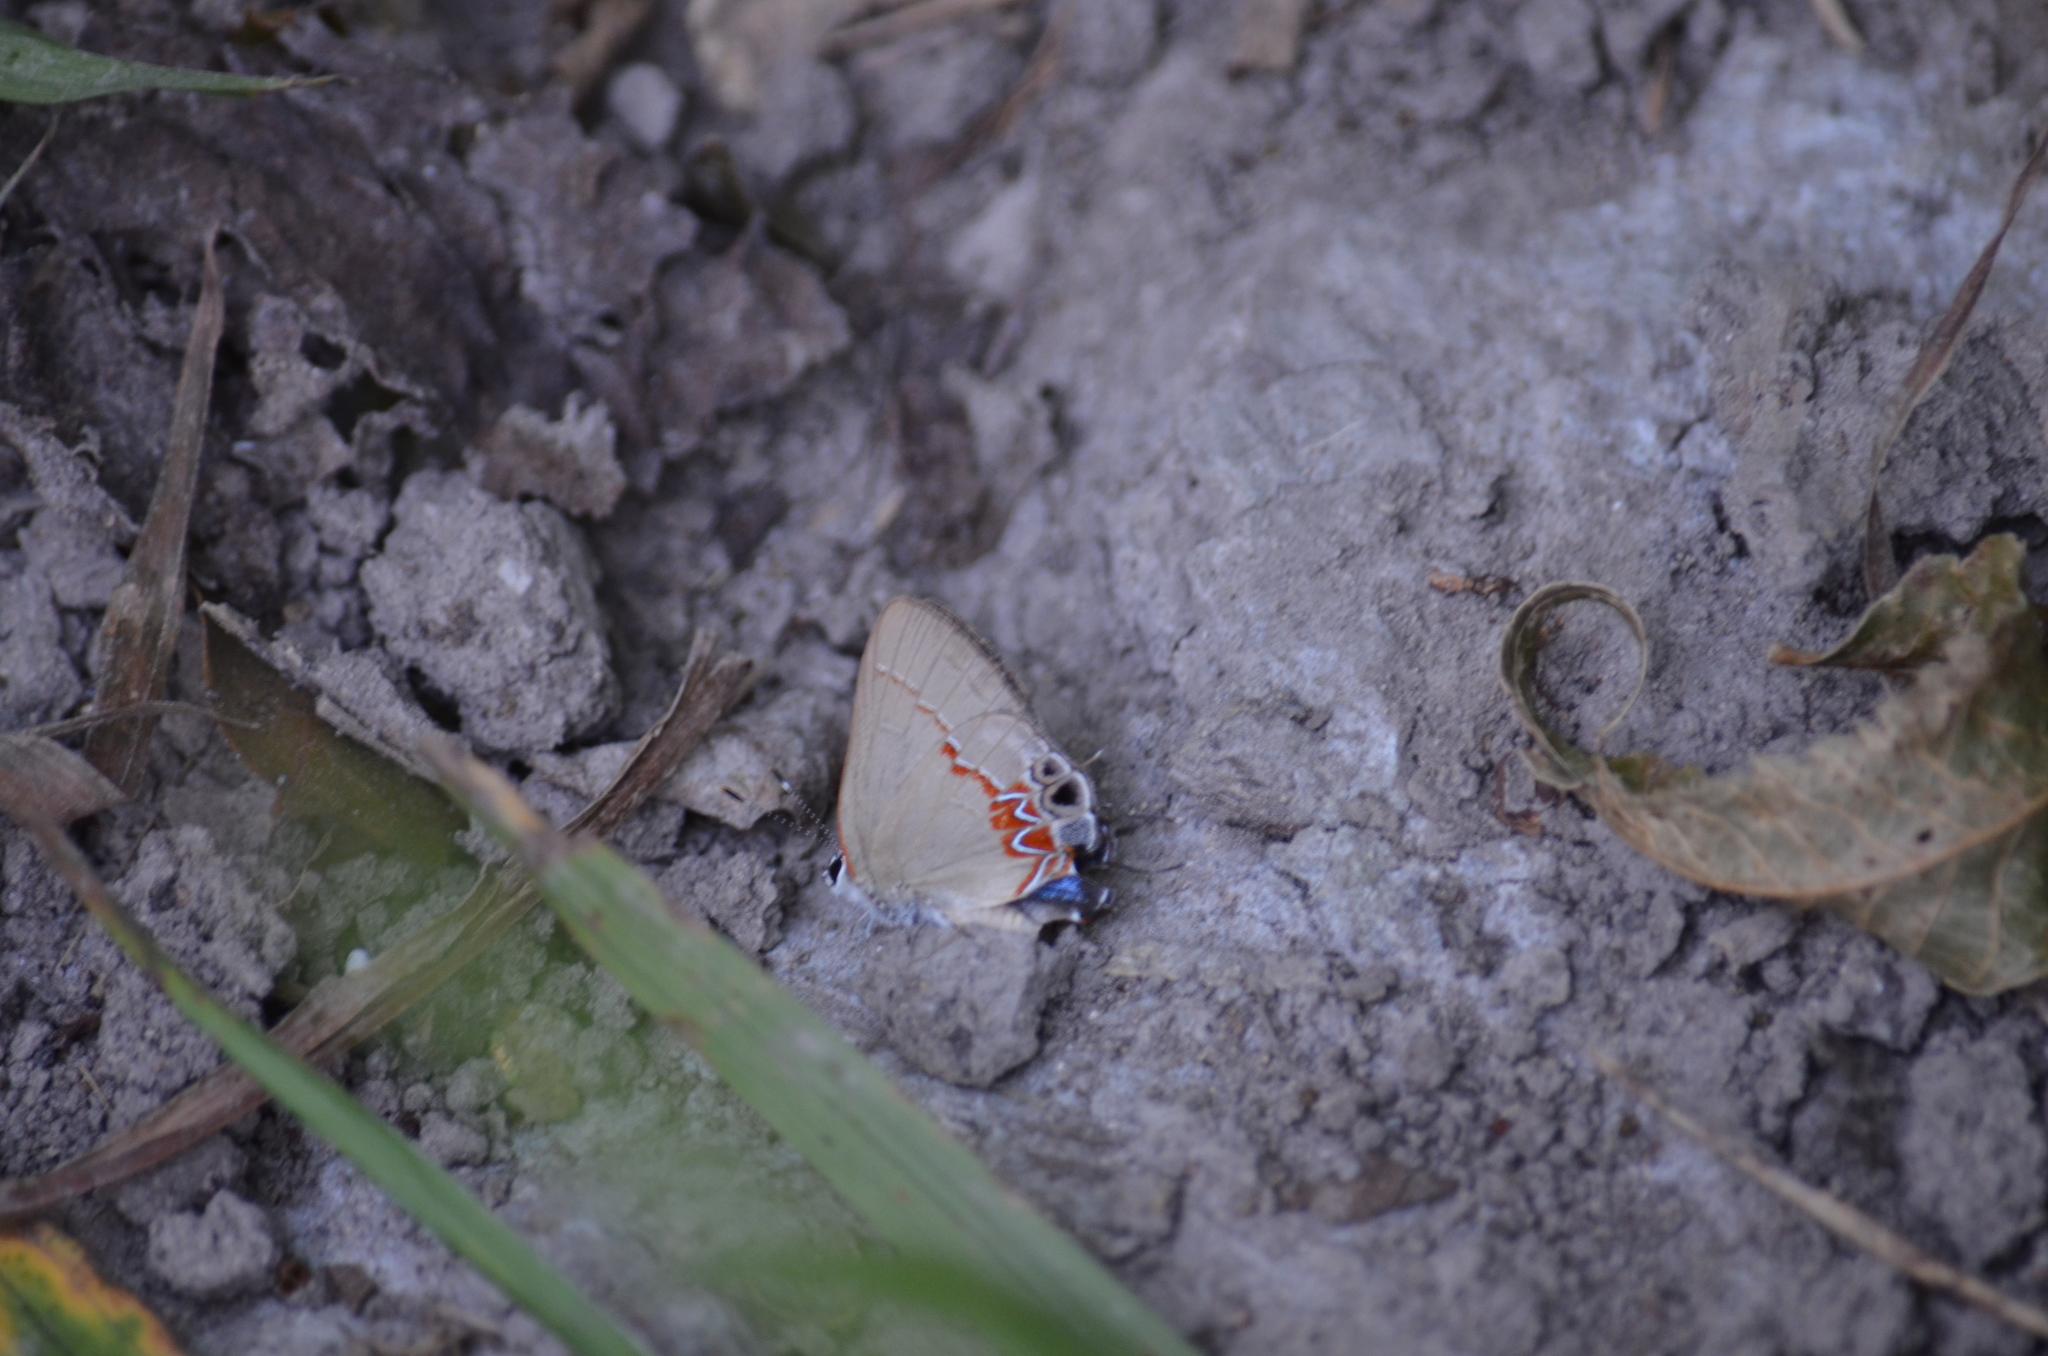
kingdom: Animalia
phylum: Arthropoda
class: Insecta
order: Lepidoptera
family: Lycaenidae
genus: Calycopis
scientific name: Calycopis isobeon
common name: Dusky-blue groundstreak
